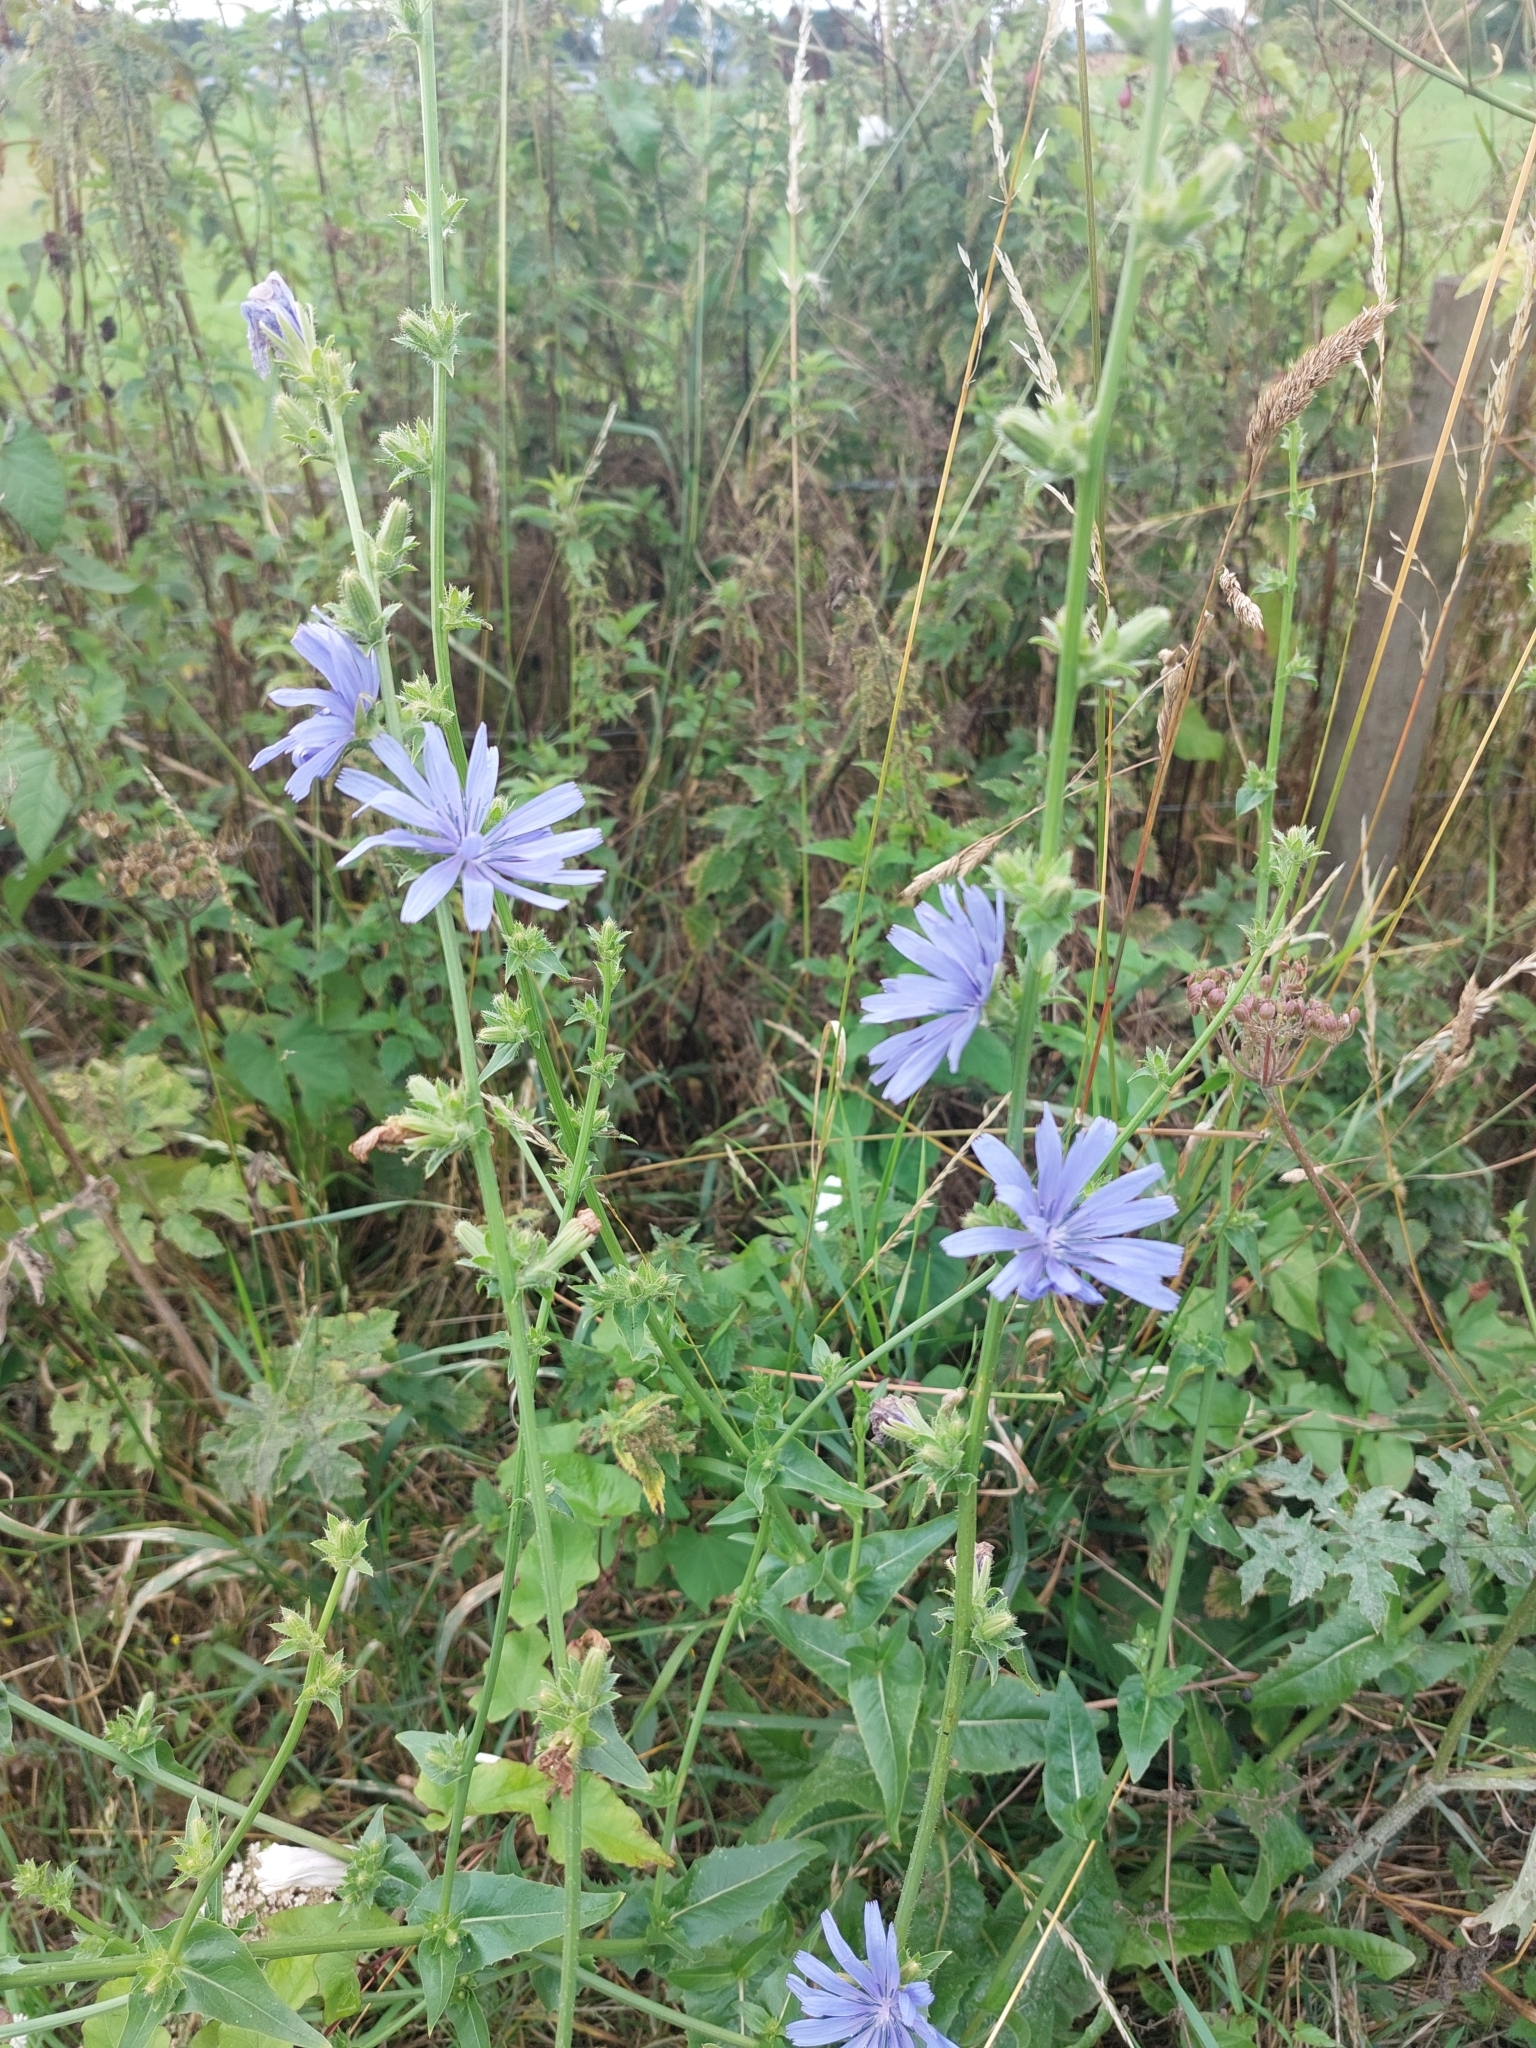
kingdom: Plantae
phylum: Tracheophyta
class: Magnoliopsida
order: Asterales
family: Asteraceae
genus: Cichorium
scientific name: Cichorium intybus
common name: Chicory
